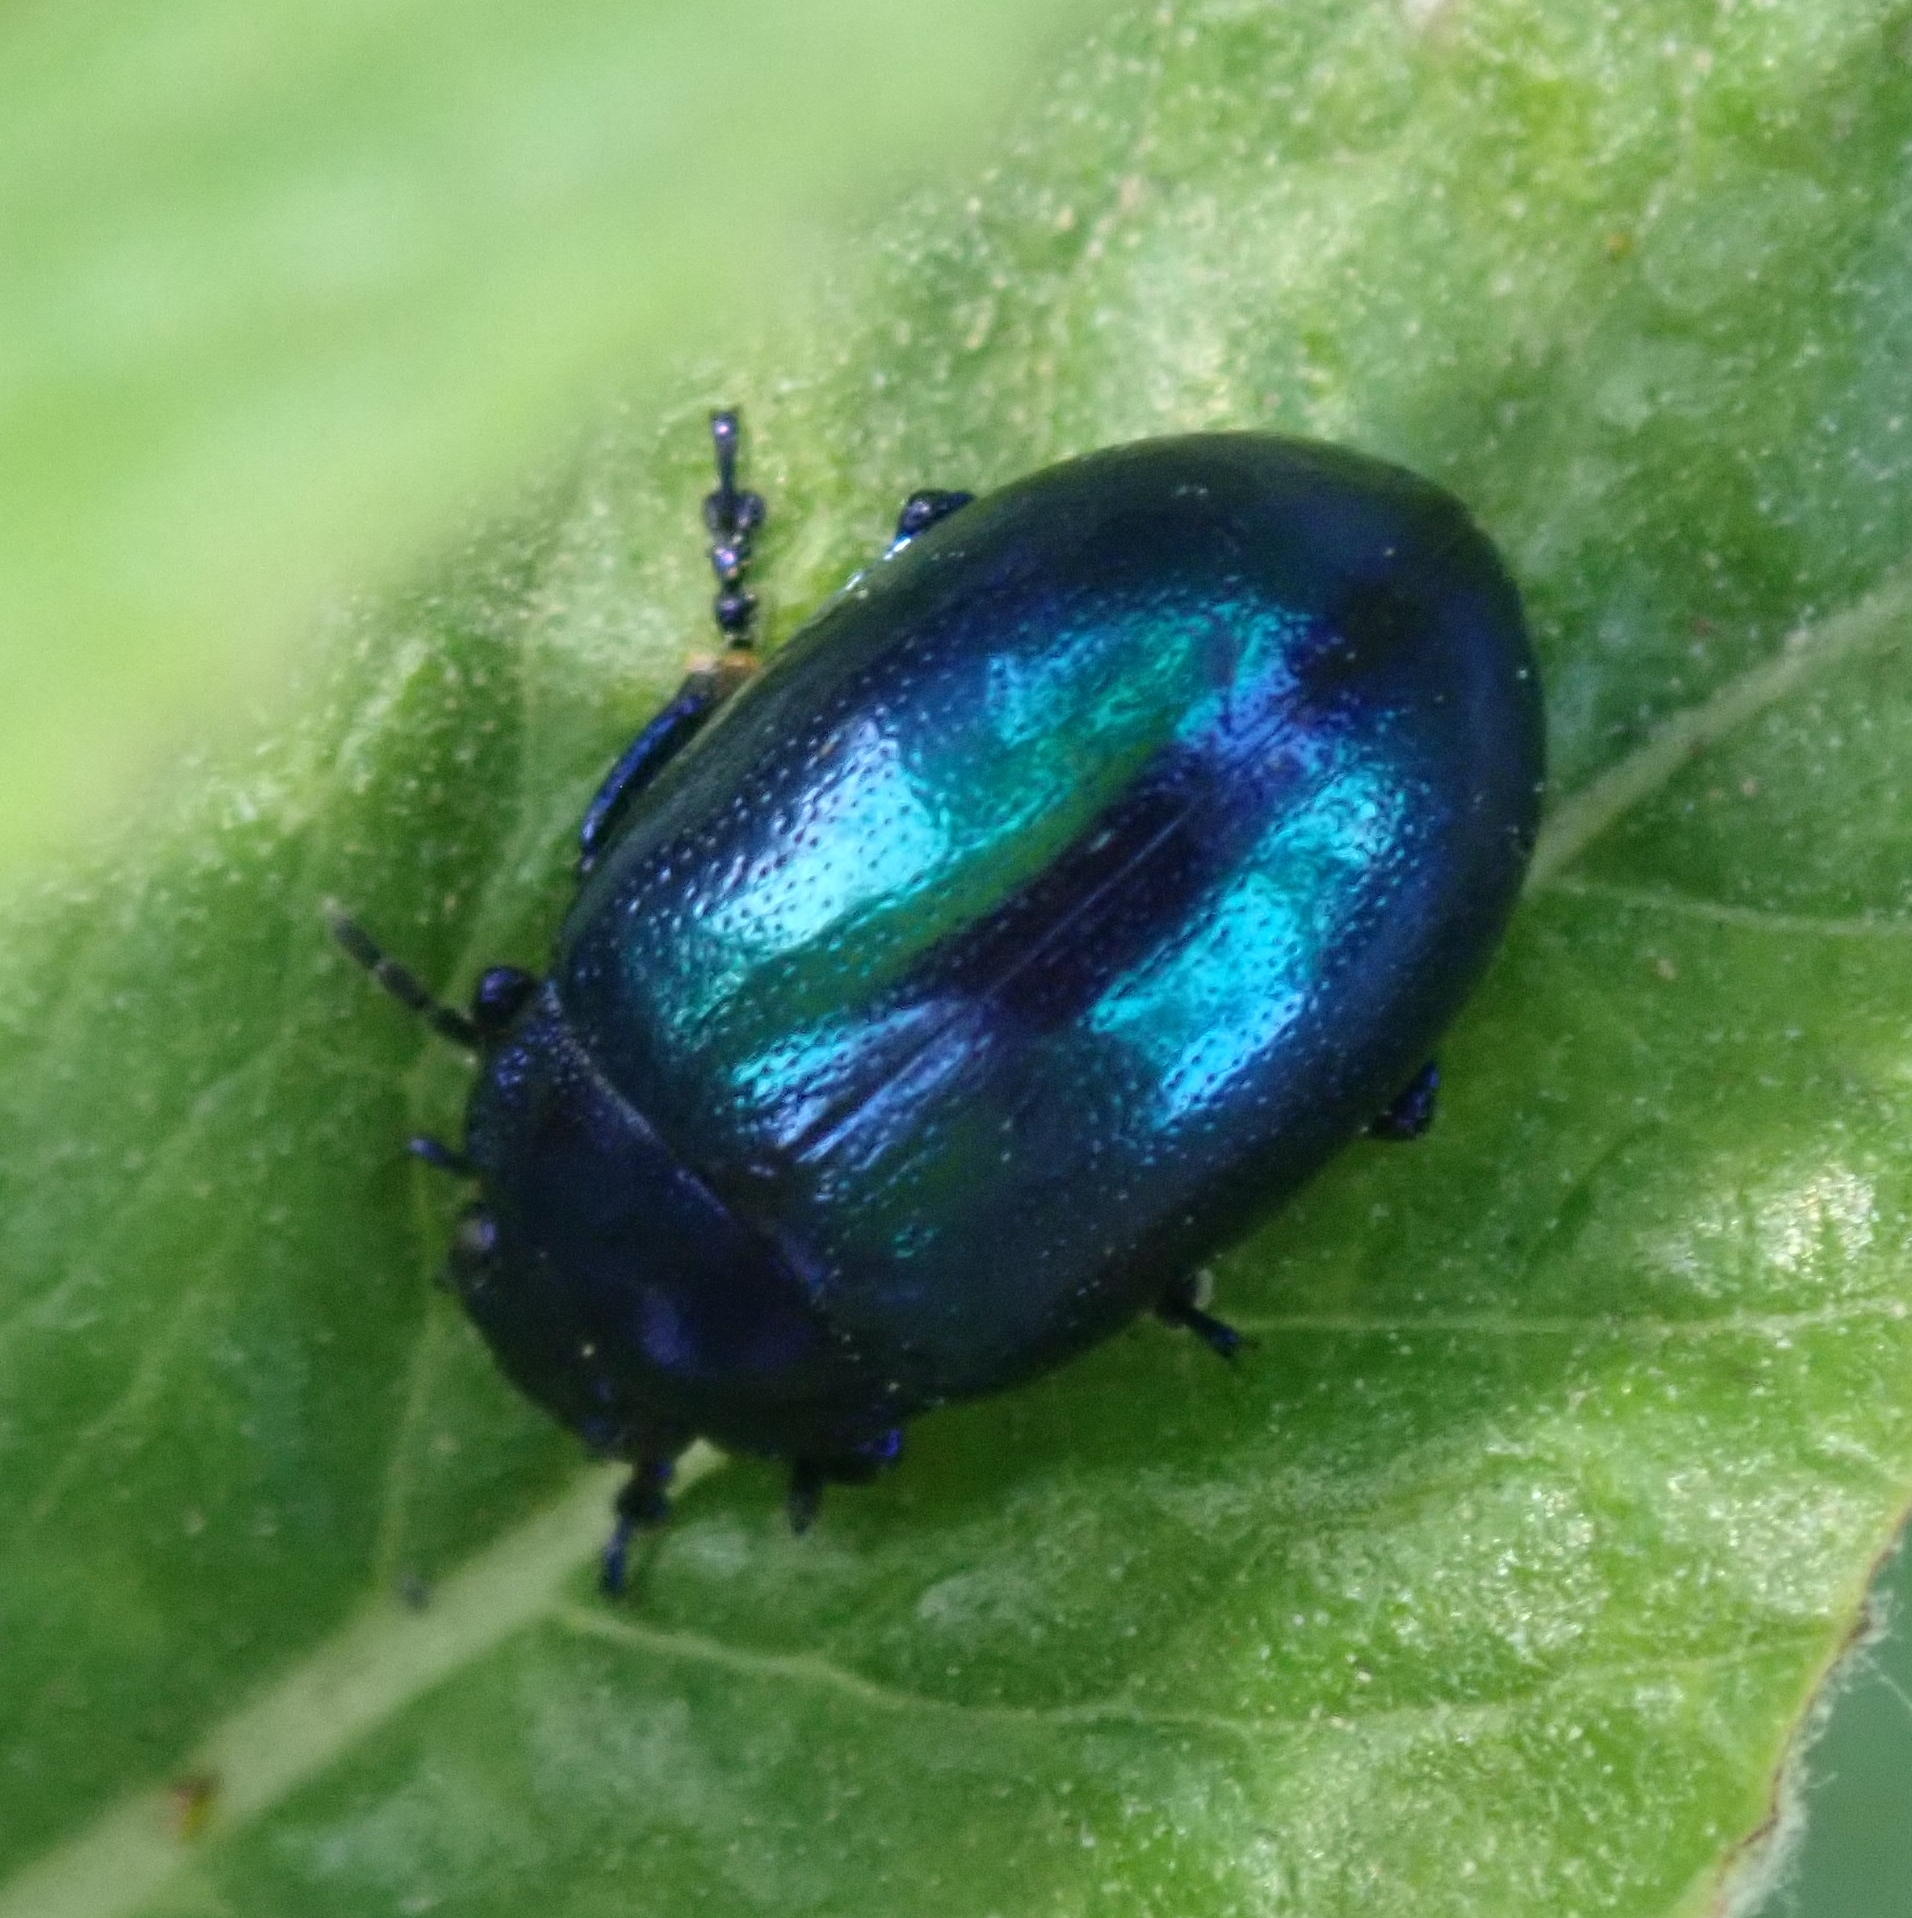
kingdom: Animalia
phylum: Arthropoda
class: Insecta
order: Coleoptera
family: Chrysomelidae
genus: Chrysolina
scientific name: Chrysolina coerulans
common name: Blue mint beetle
